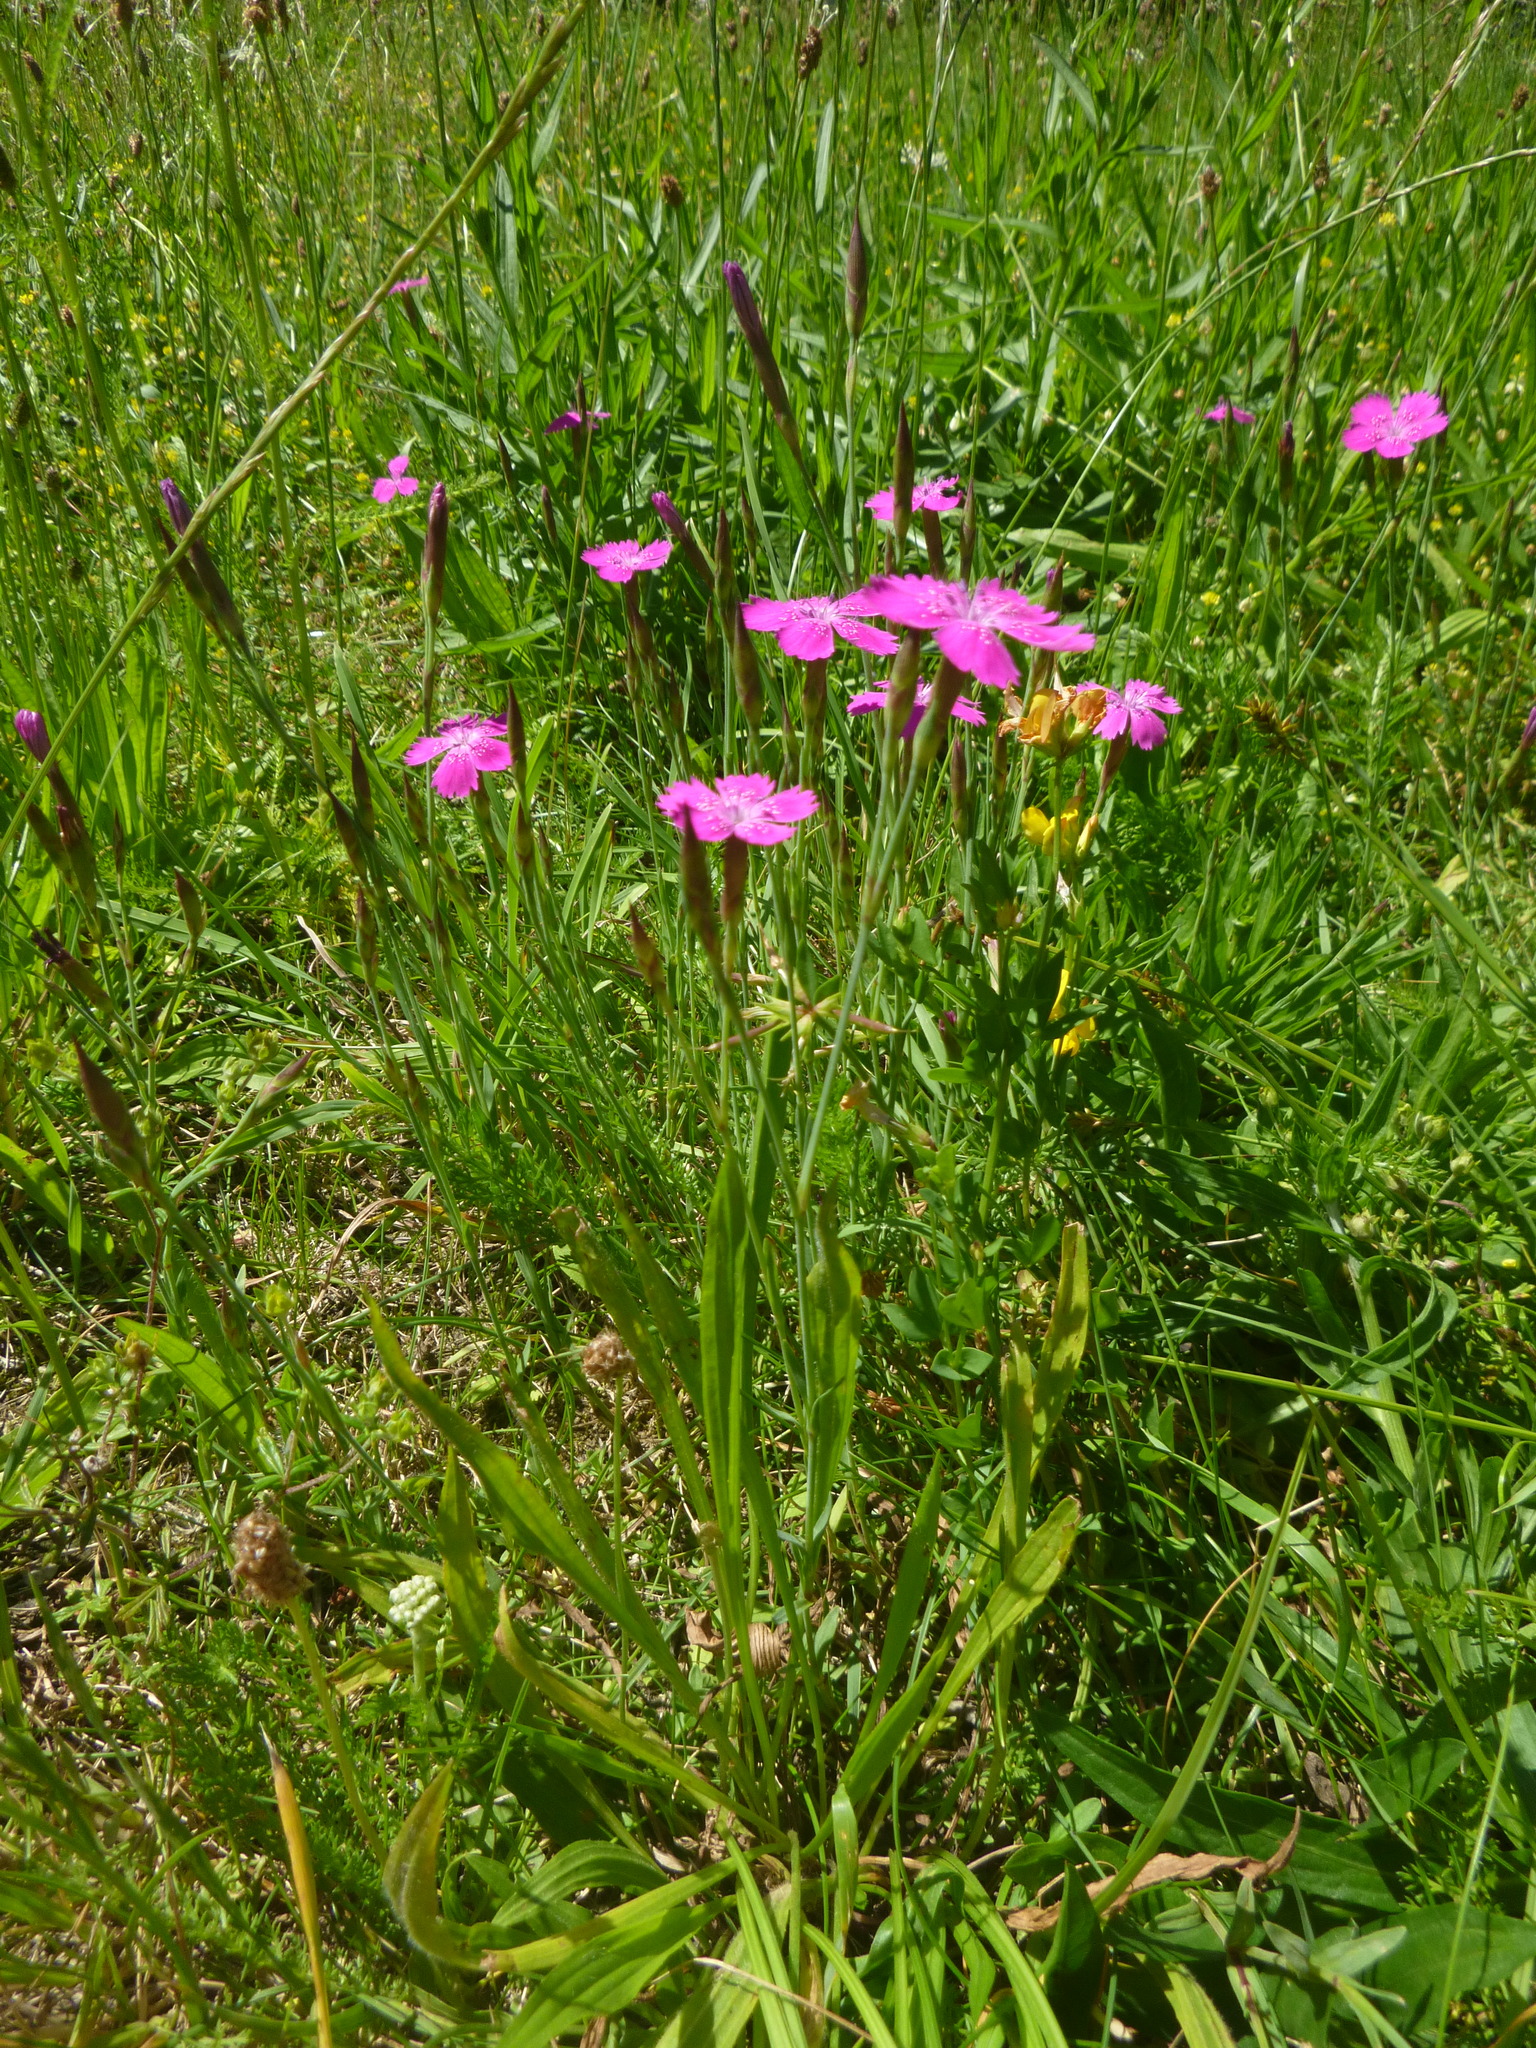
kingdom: Plantae
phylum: Tracheophyta
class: Magnoliopsida
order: Caryophyllales
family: Caryophyllaceae
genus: Dianthus
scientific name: Dianthus deltoides
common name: Maiden pink
